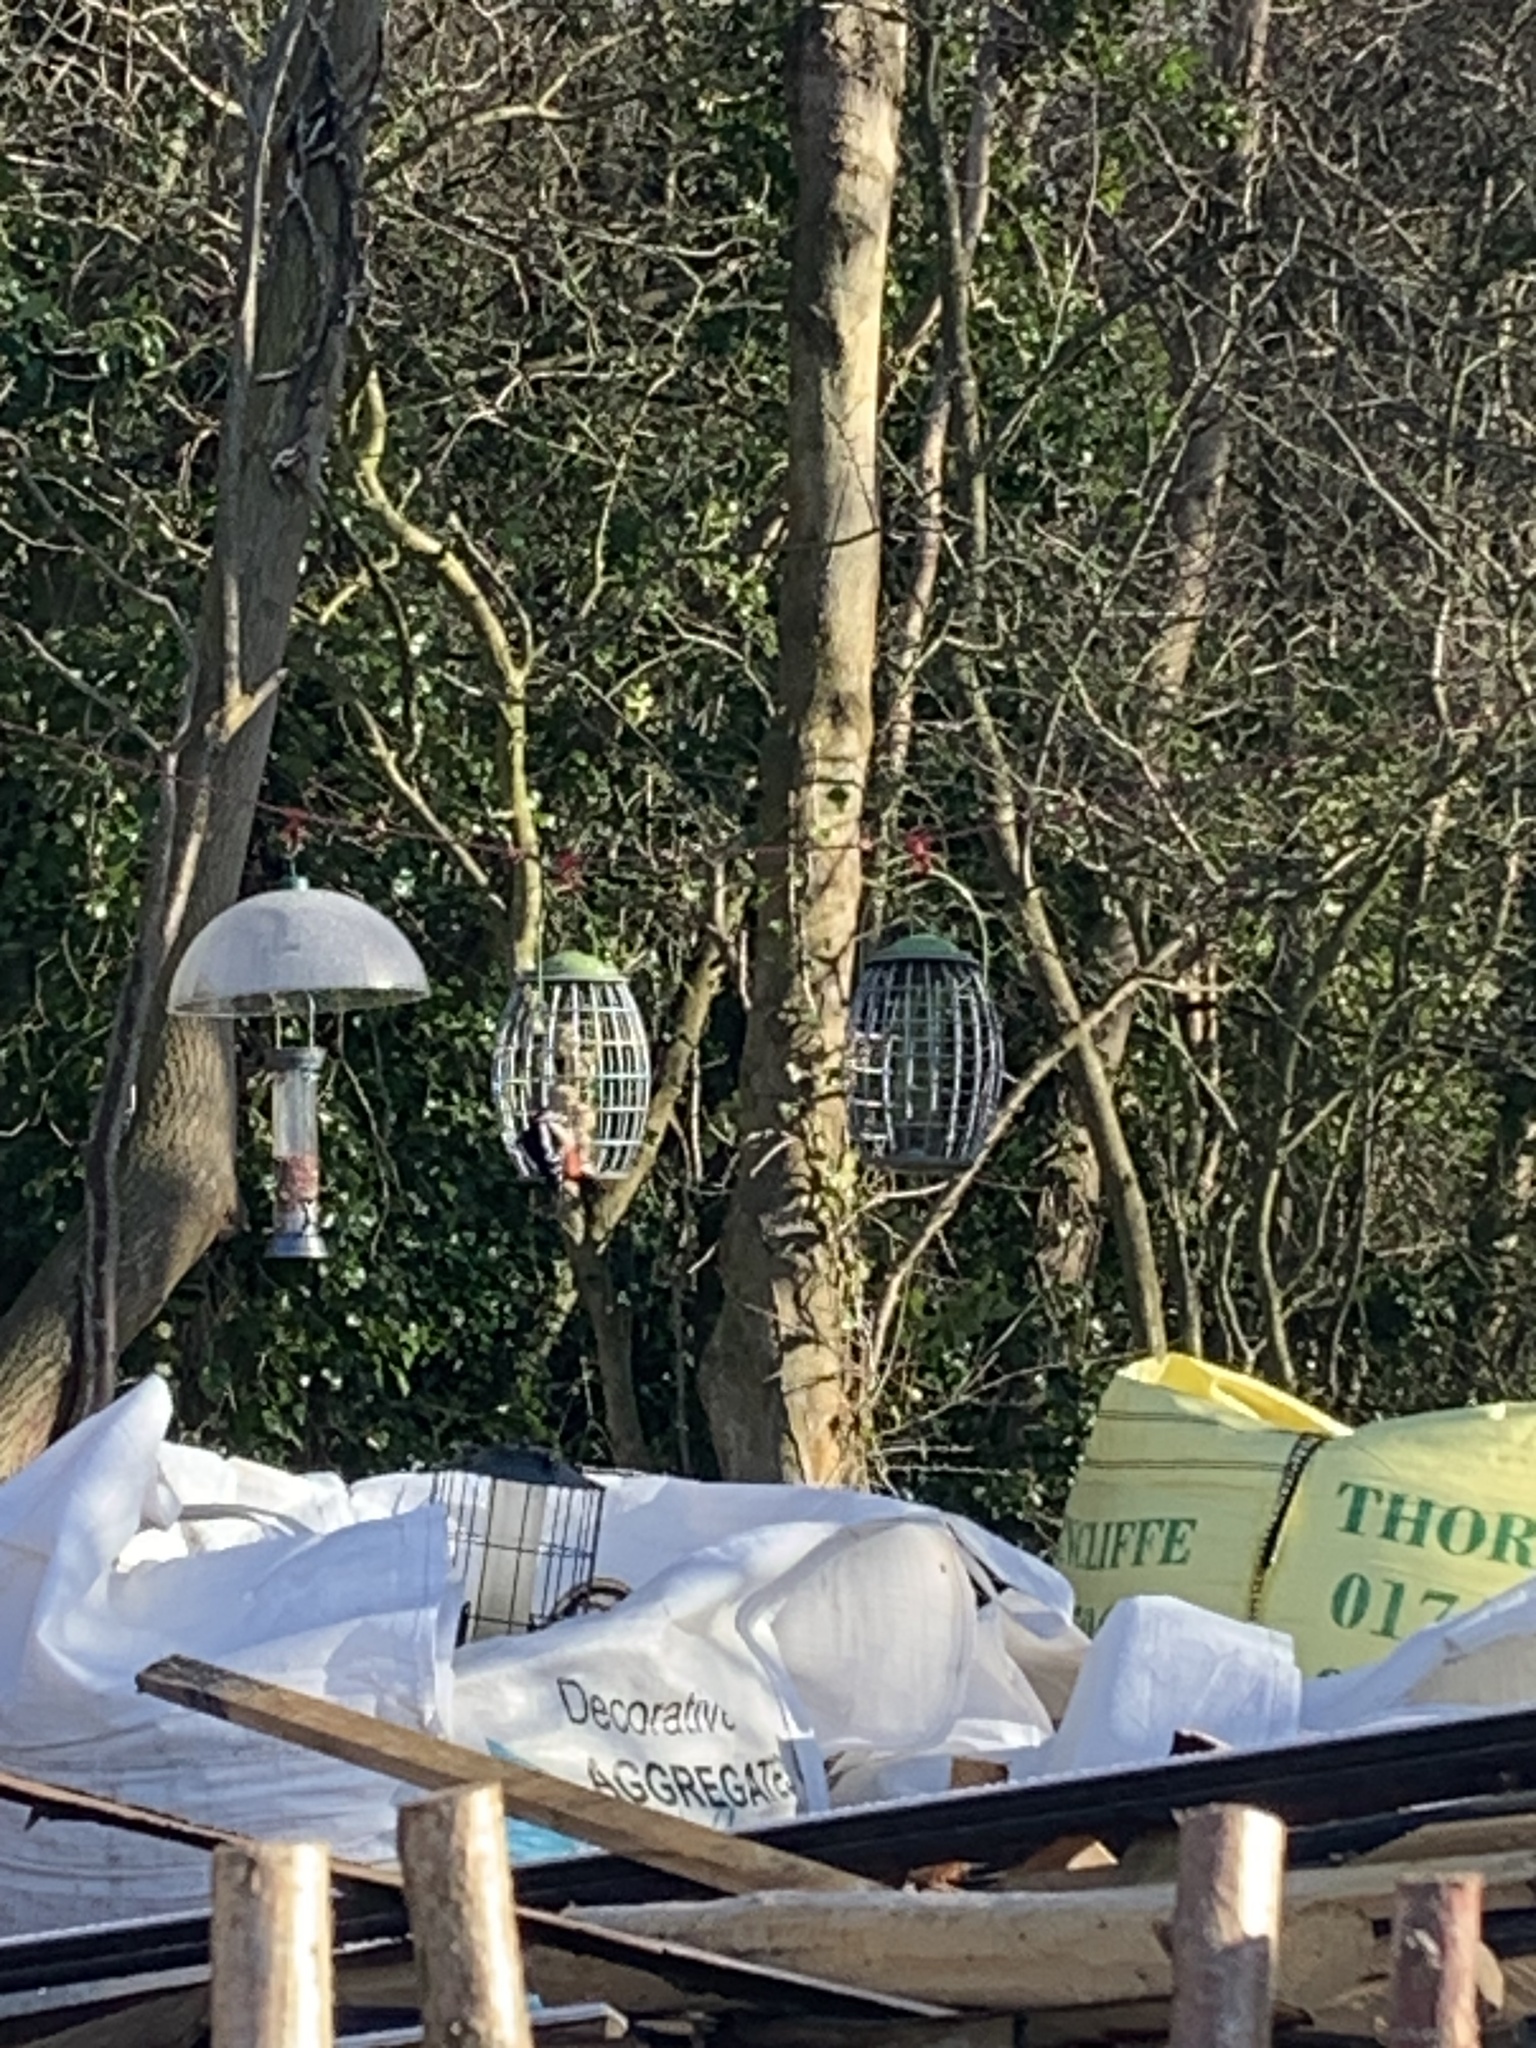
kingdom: Animalia
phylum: Chordata
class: Aves
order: Piciformes
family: Picidae
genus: Dendrocopos
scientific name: Dendrocopos major
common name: Great spotted woodpecker
